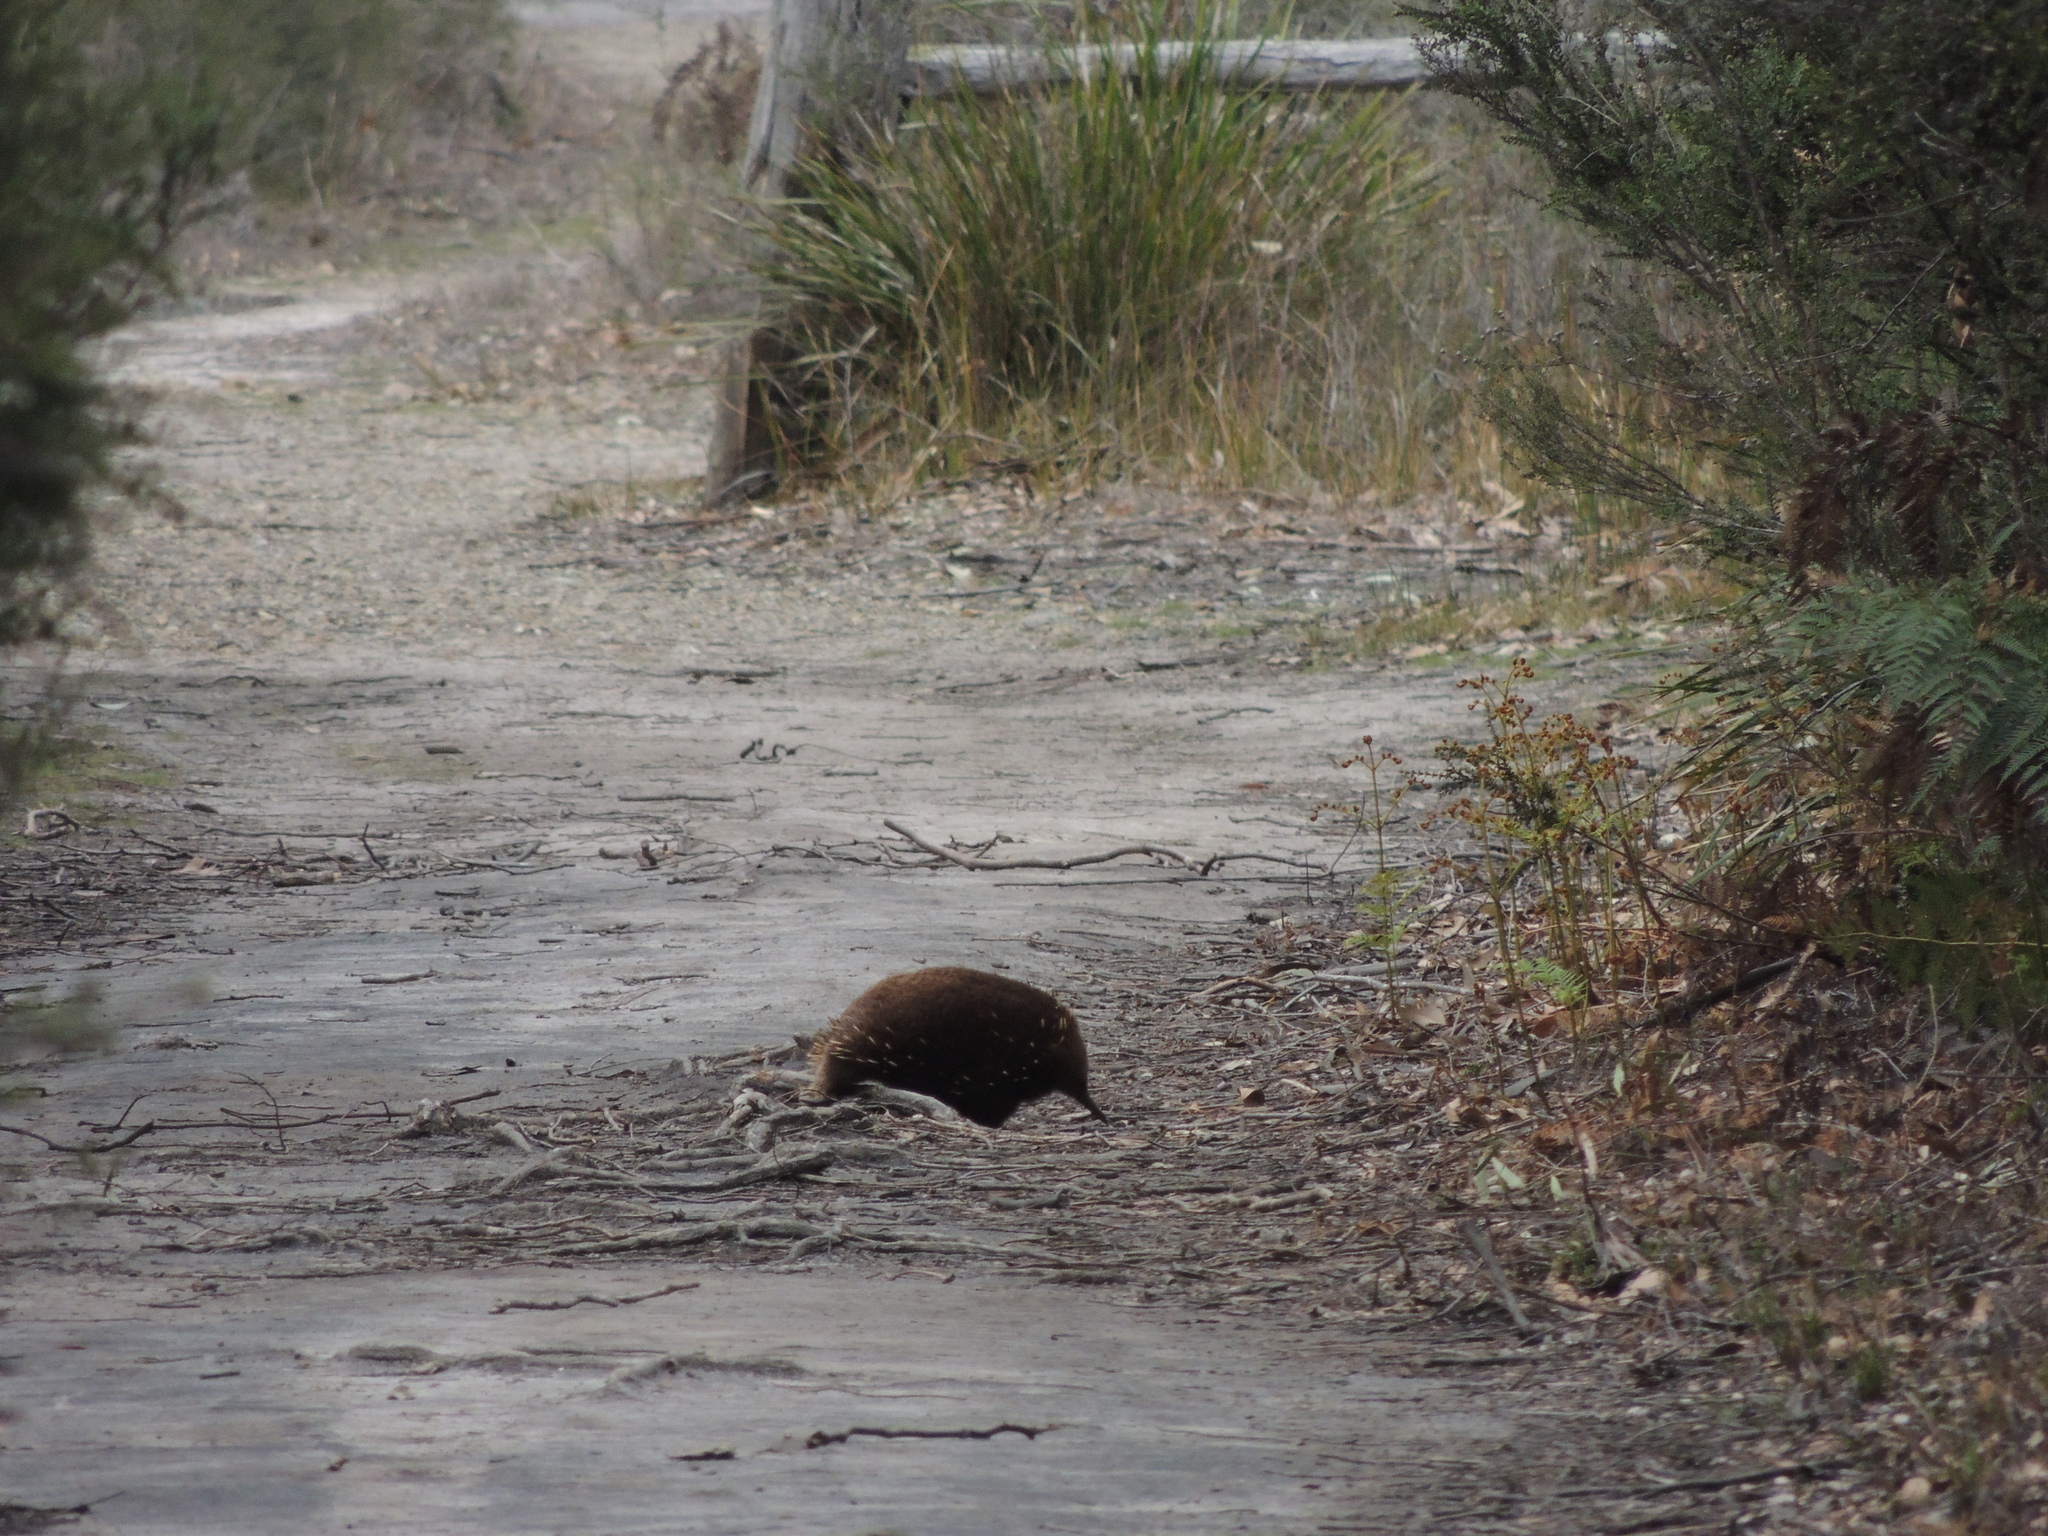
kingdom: Animalia
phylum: Chordata
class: Mammalia
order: Monotremata
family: Tachyglossidae
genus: Tachyglossus
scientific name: Tachyglossus aculeatus
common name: Short-beaked echidna
